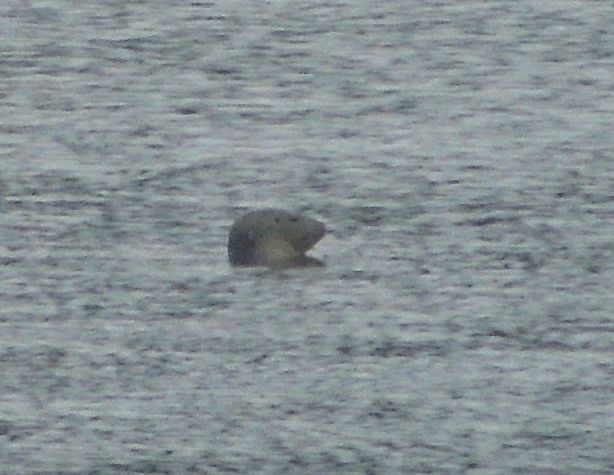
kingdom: Animalia
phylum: Chordata
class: Mammalia
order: Carnivora
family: Phocidae
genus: Phoca
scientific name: Phoca vitulina
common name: Harbor seal
